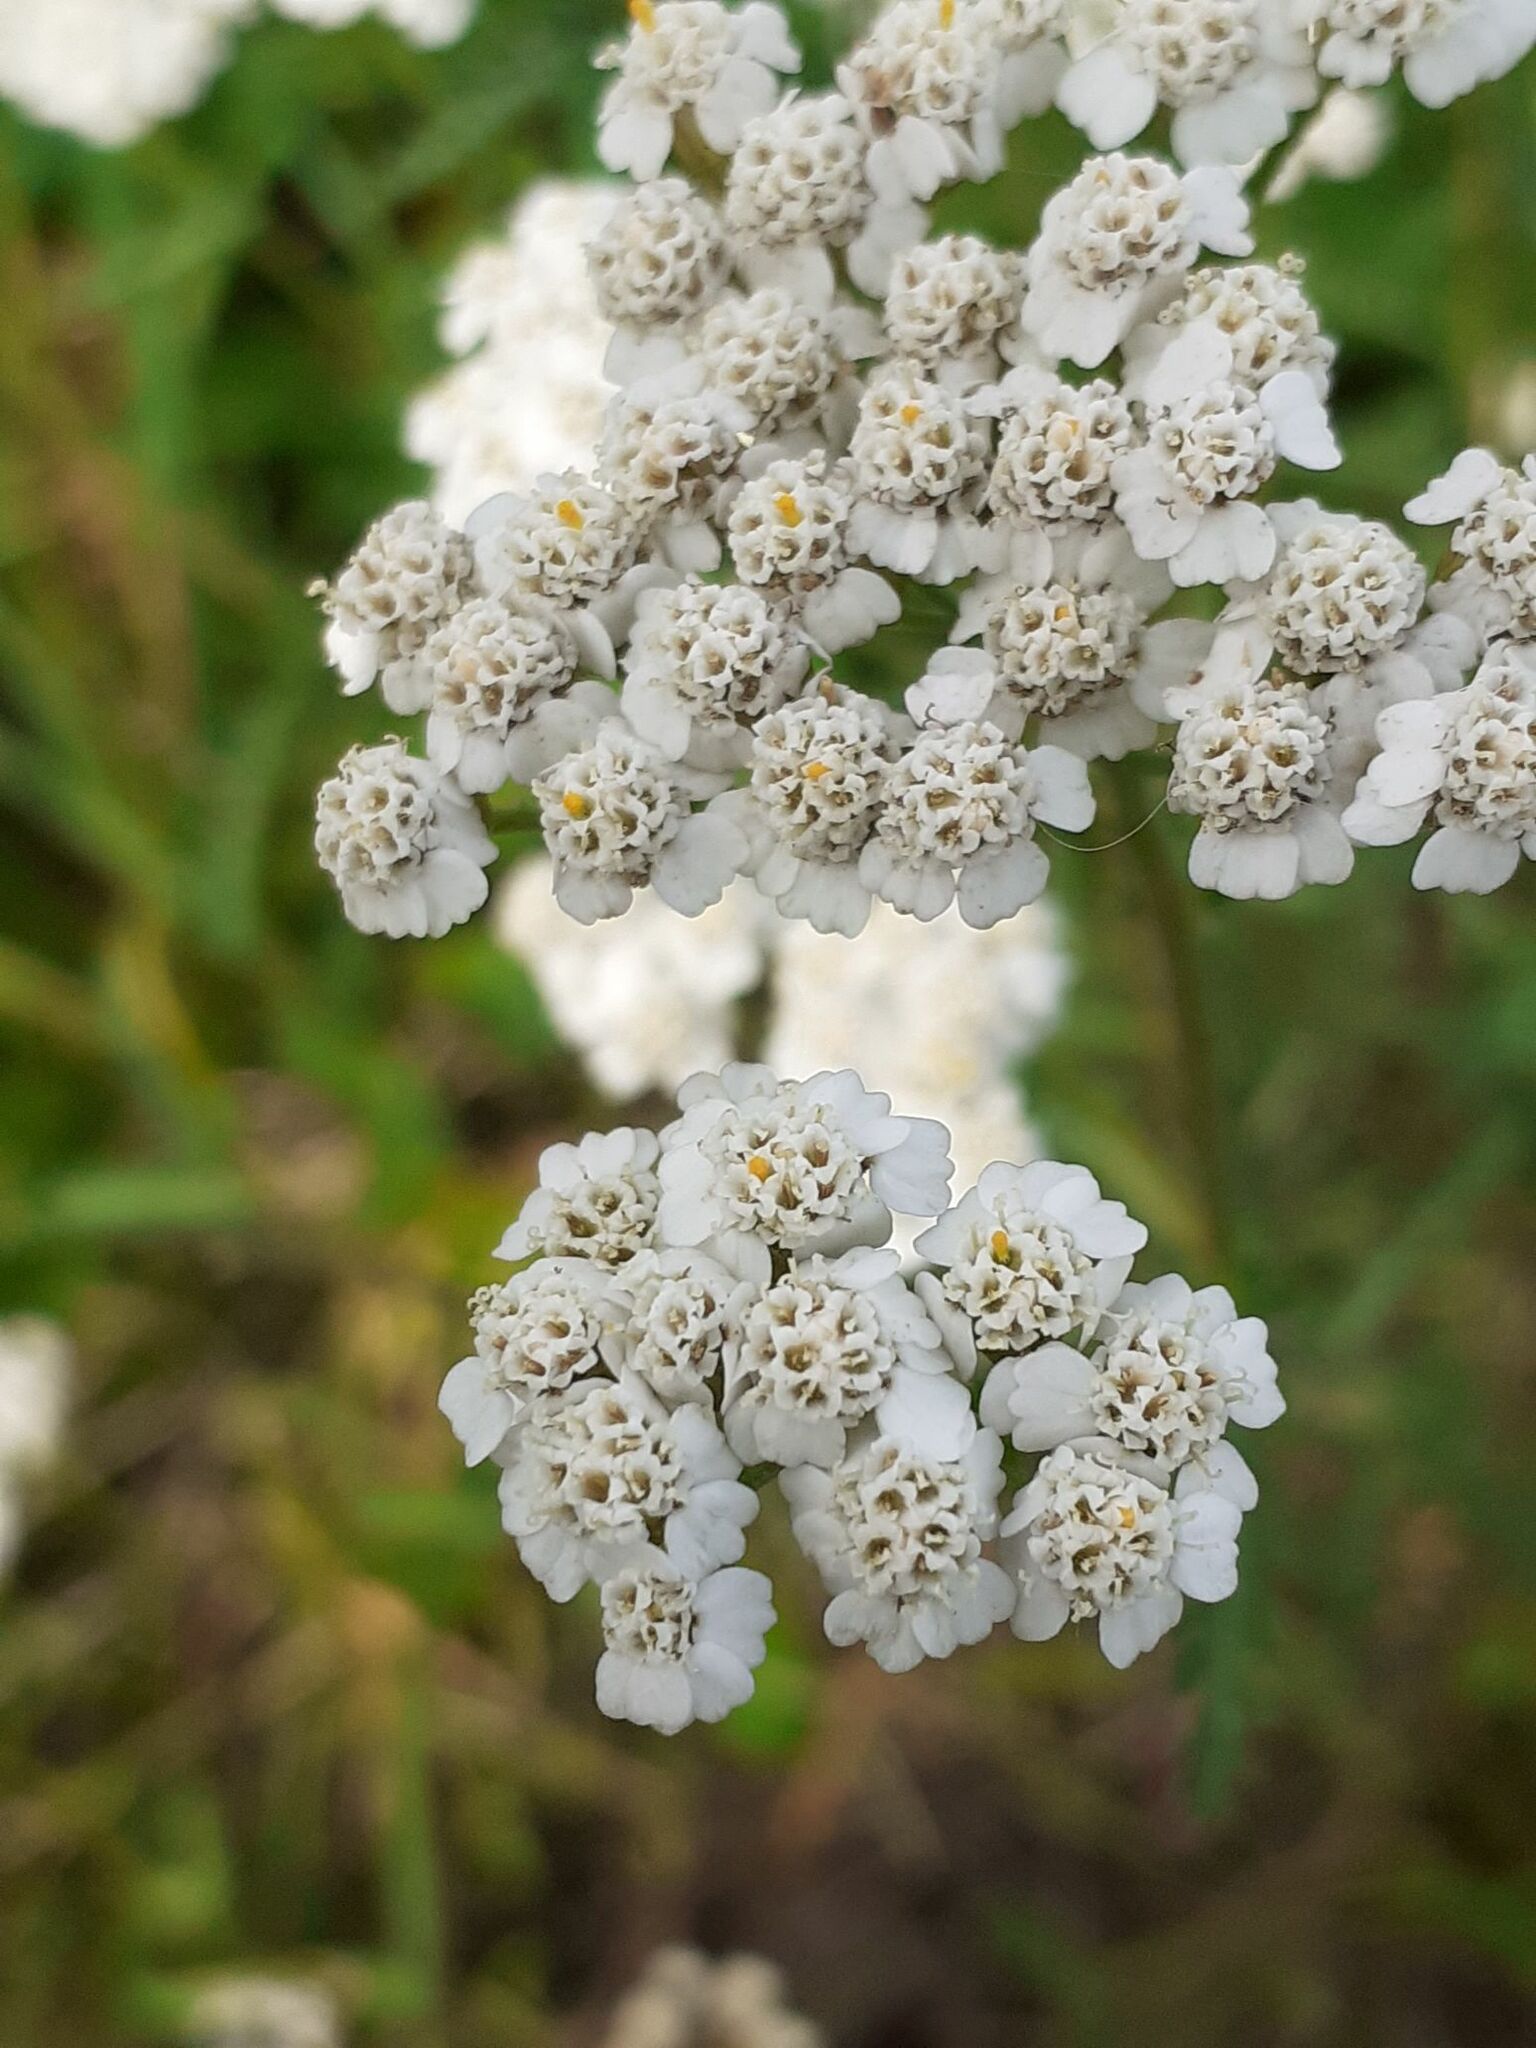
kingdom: Plantae
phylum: Tracheophyta
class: Magnoliopsida
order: Asterales
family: Asteraceae
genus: Achillea
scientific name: Achillea millefolium
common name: Yarrow
